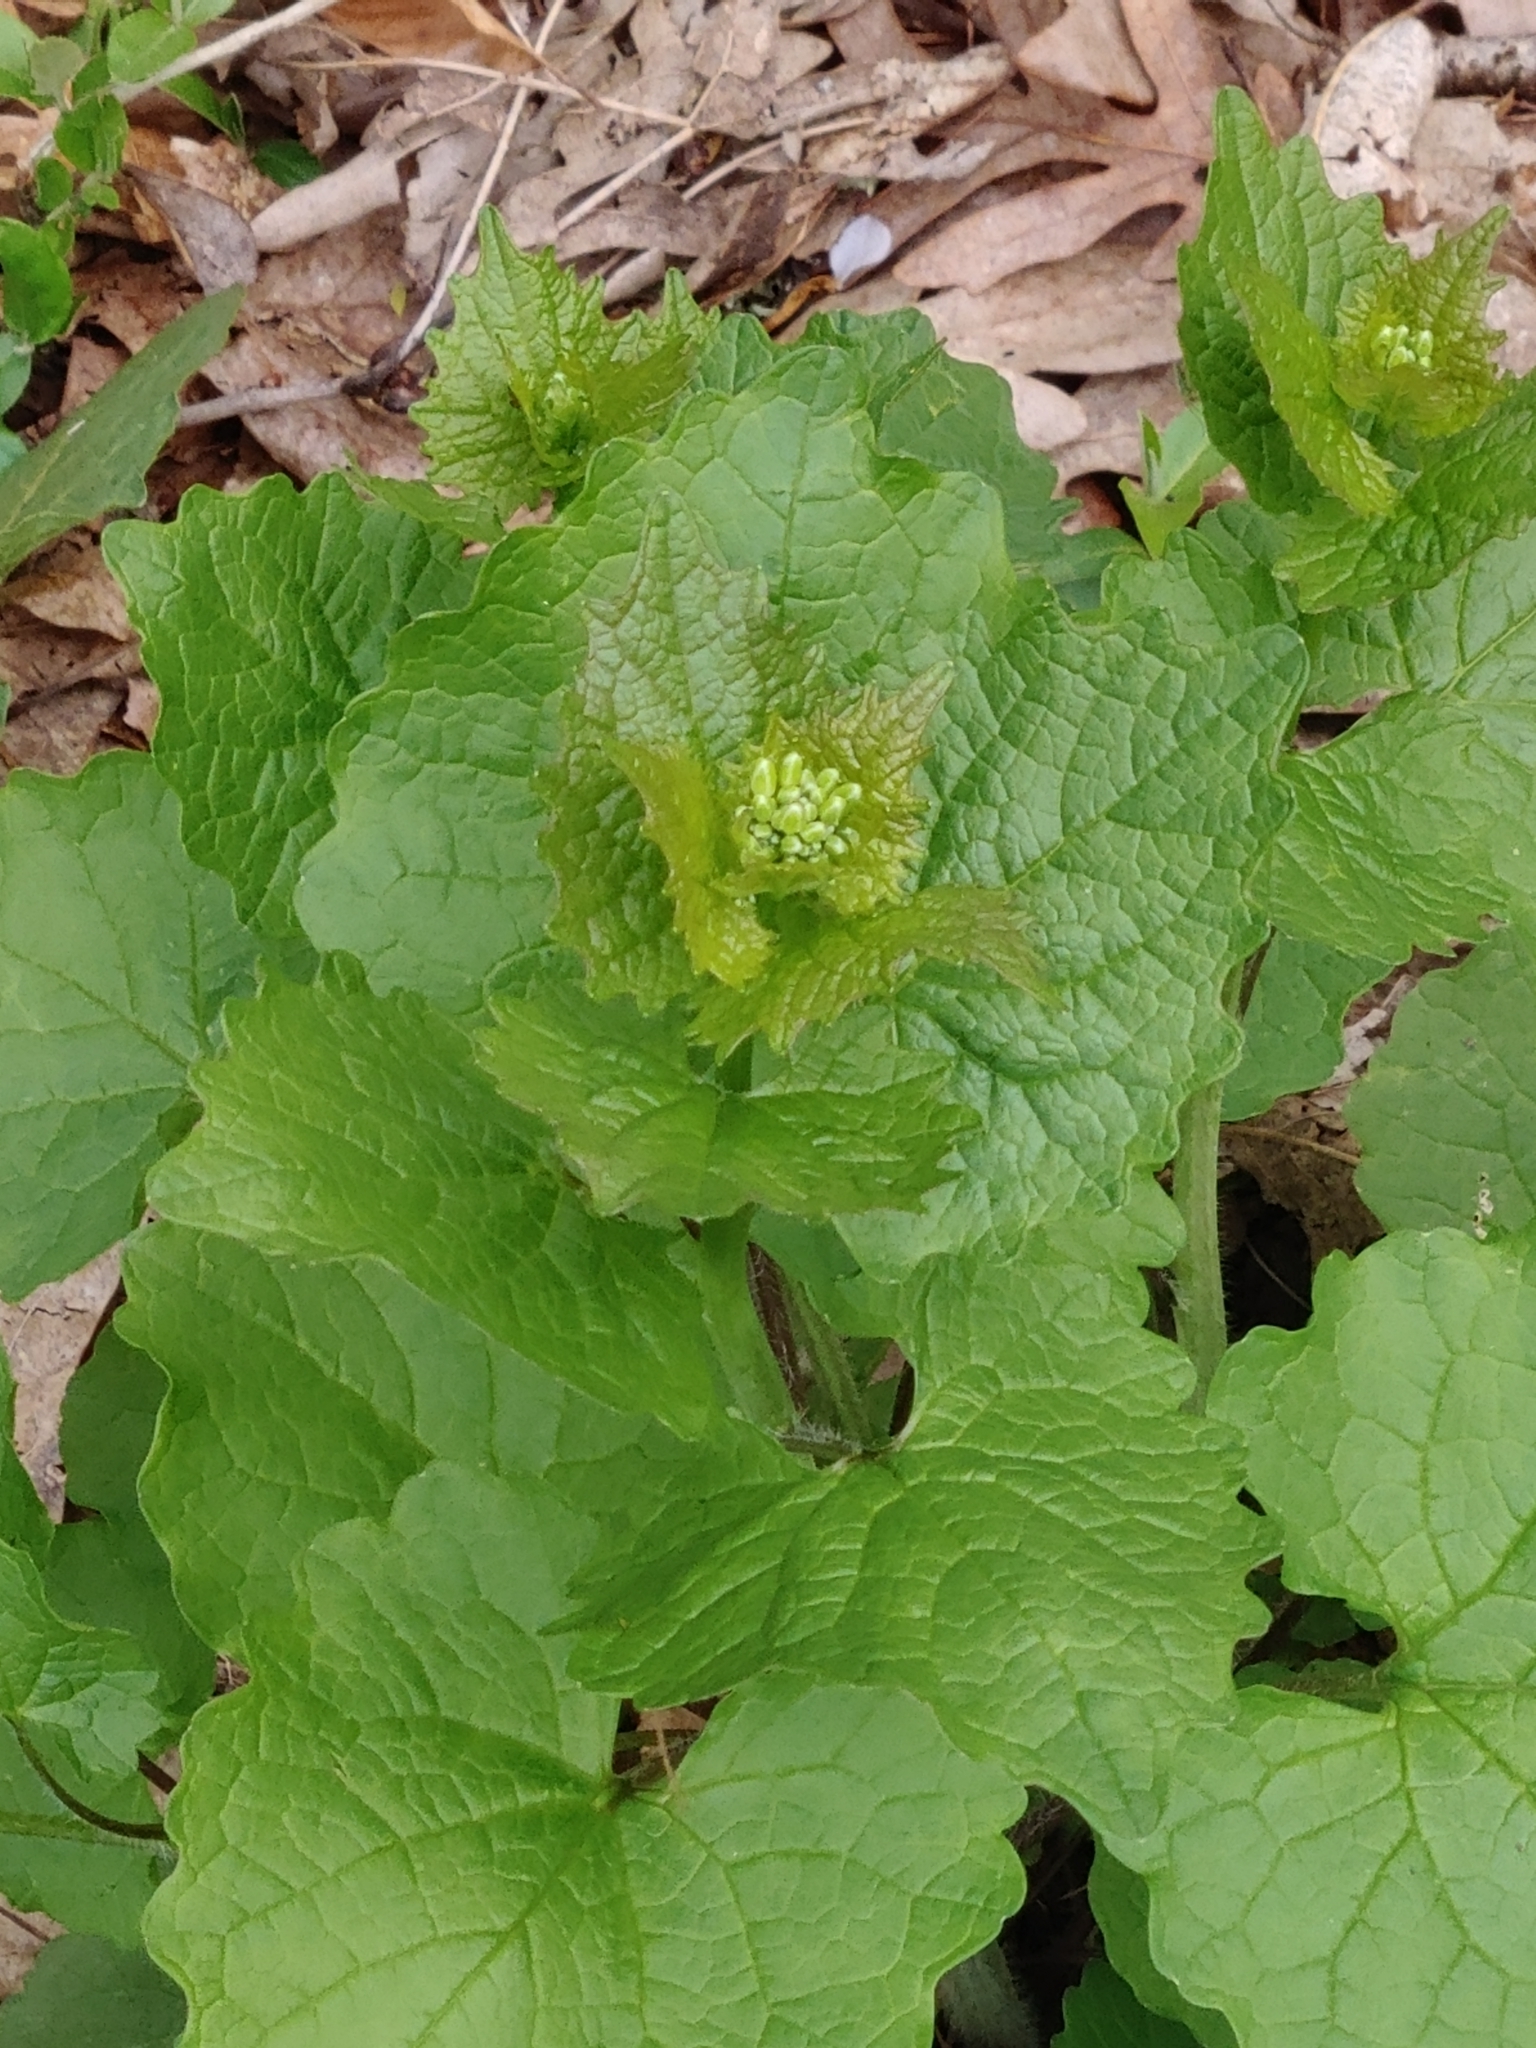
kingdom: Plantae
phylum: Tracheophyta
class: Magnoliopsida
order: Brassicales
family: Brassicaceae
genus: Alliaria
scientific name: Alliaria petiolata
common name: Garlic mustard
